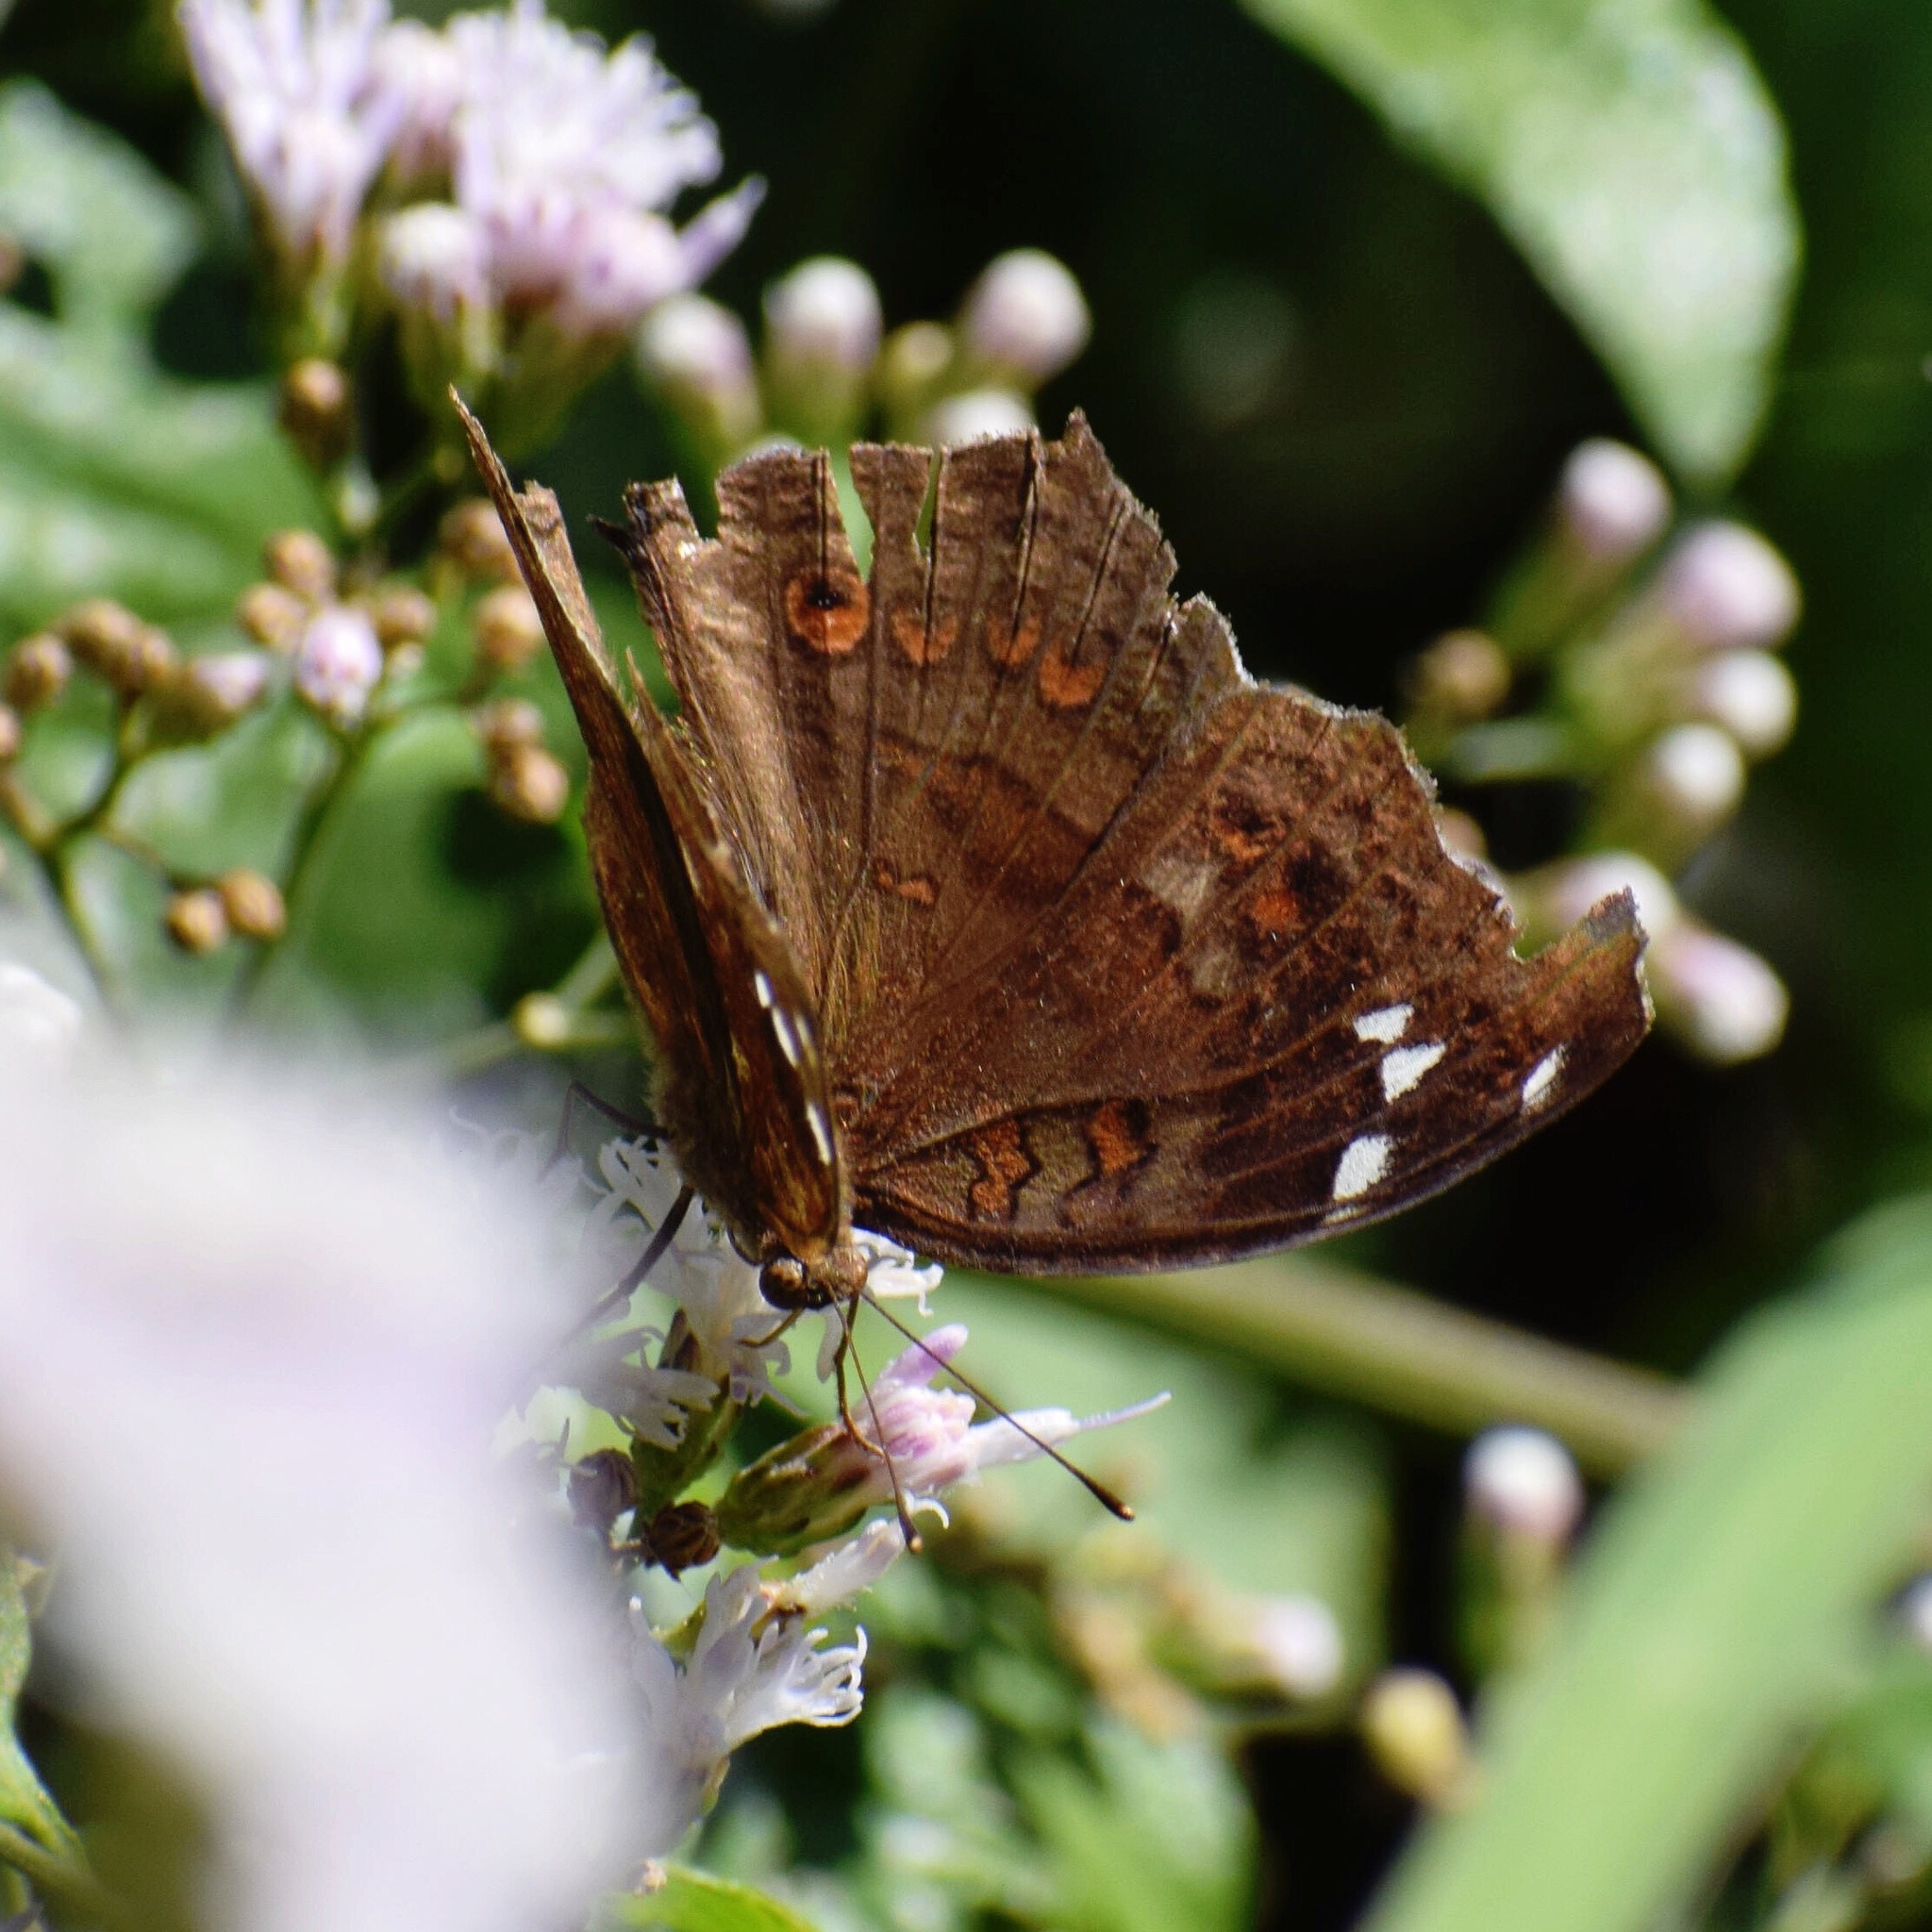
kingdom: Animalia
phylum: Arthropoda
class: Insecta
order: Lepidoptera
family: Nymphalidae
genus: Junonia
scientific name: Junonia natalica
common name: Brown pansy
